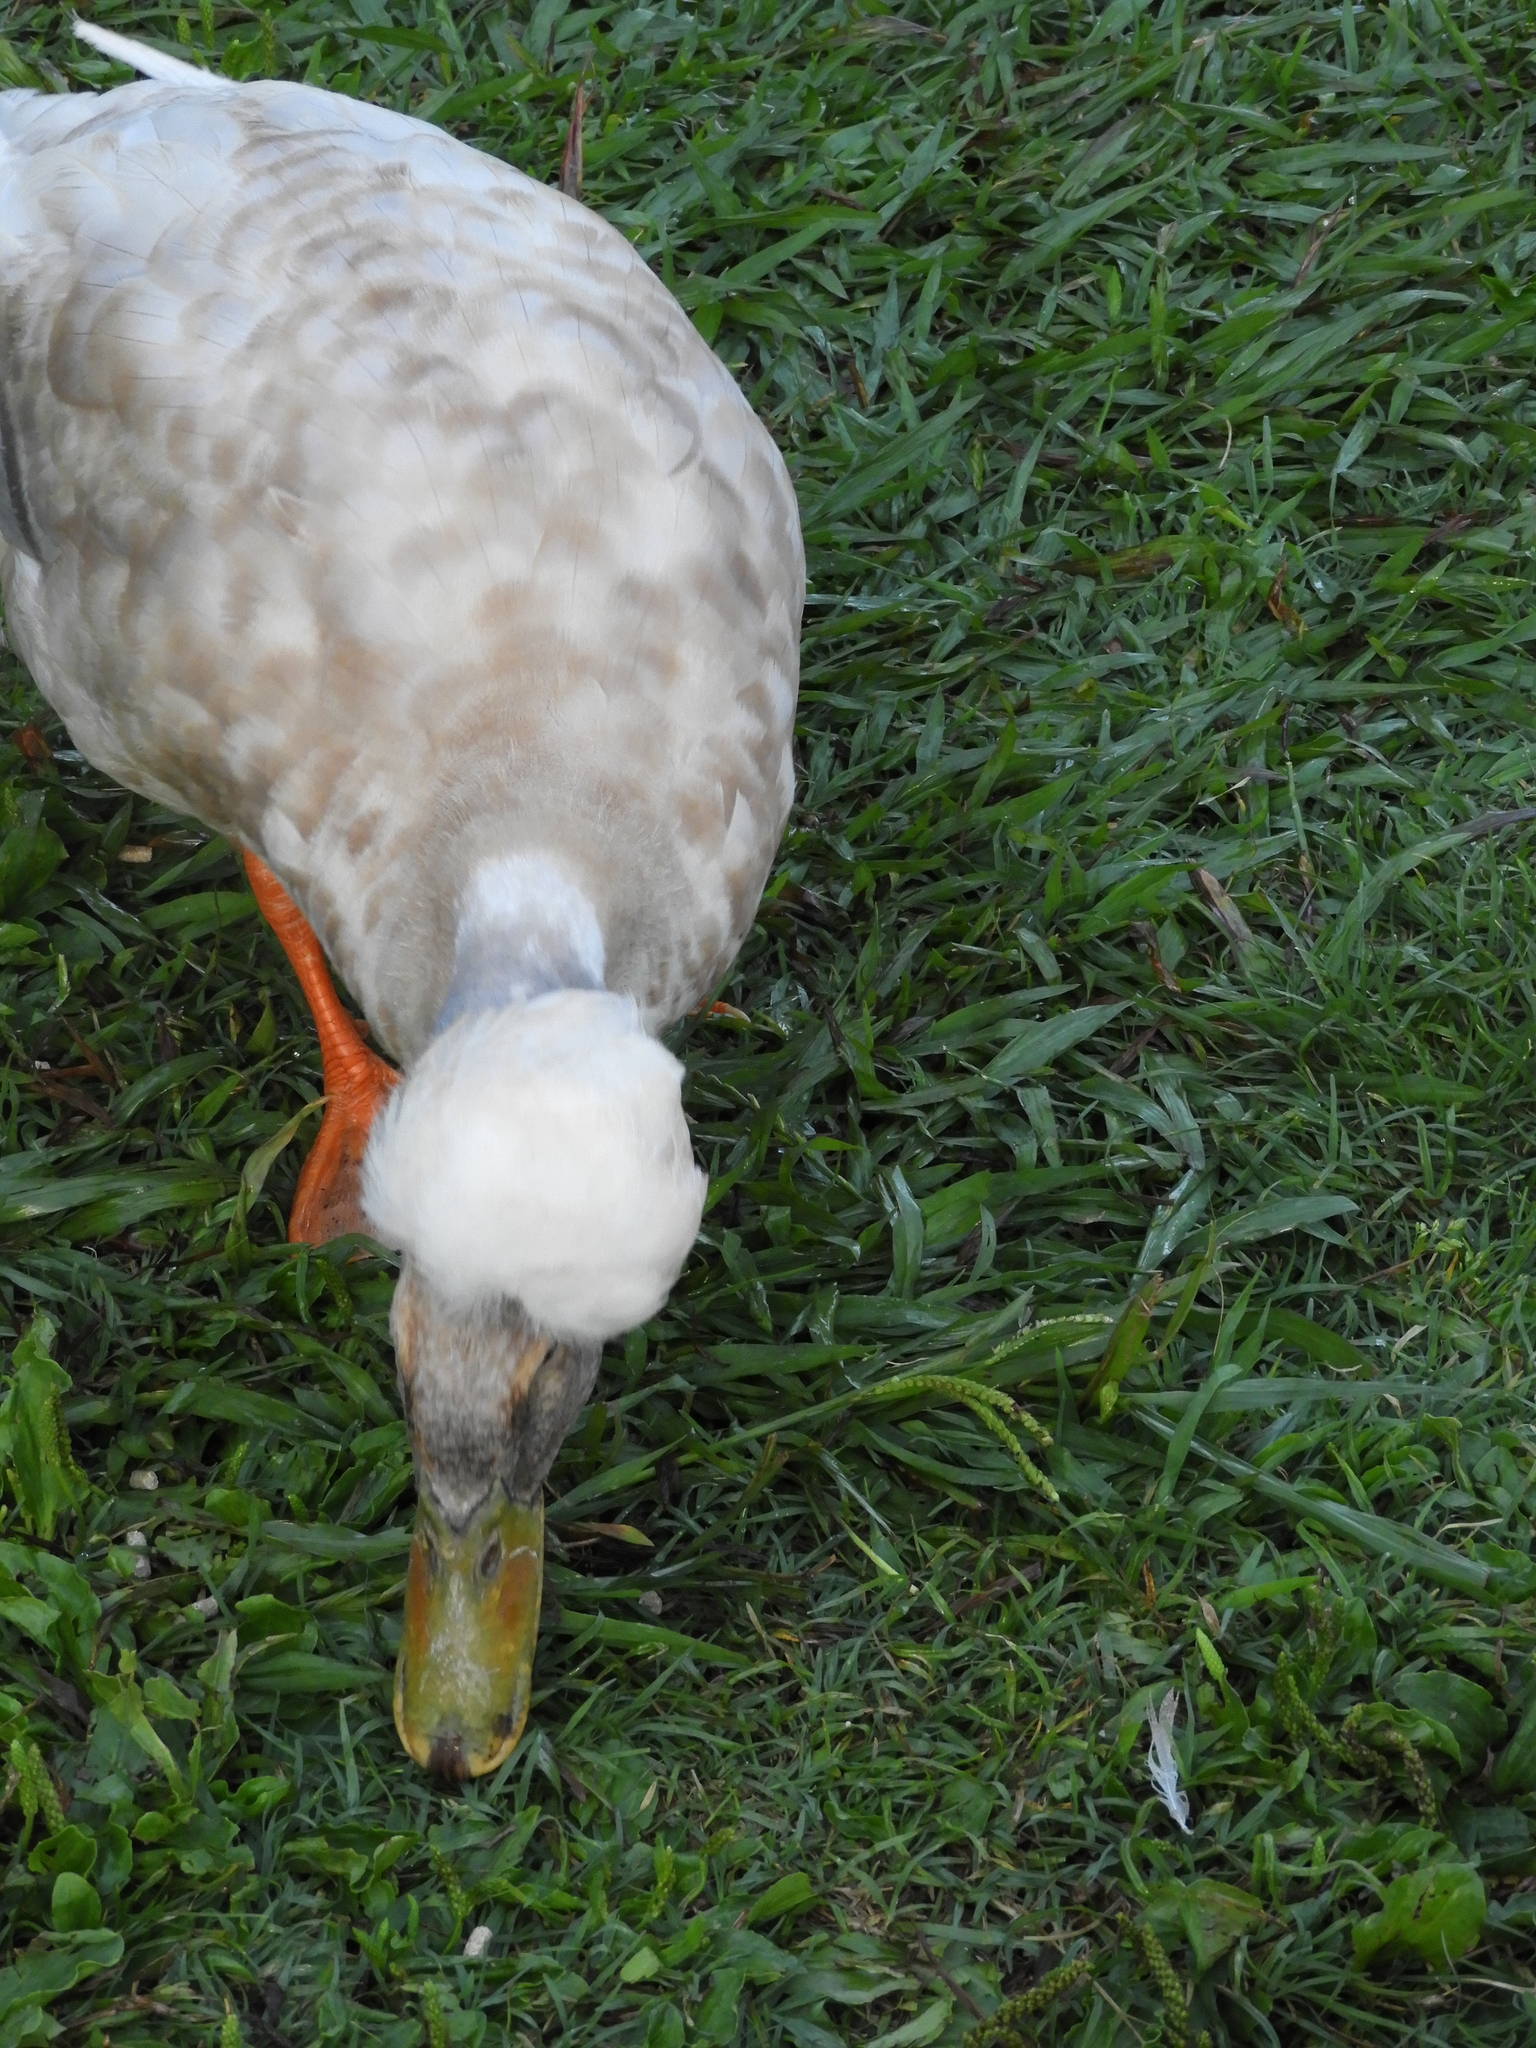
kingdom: Animalia
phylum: Chordata
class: Aves
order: Anseriformes
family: Anatidae
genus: Anas
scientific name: Anas platyrhynchos
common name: Mallard
